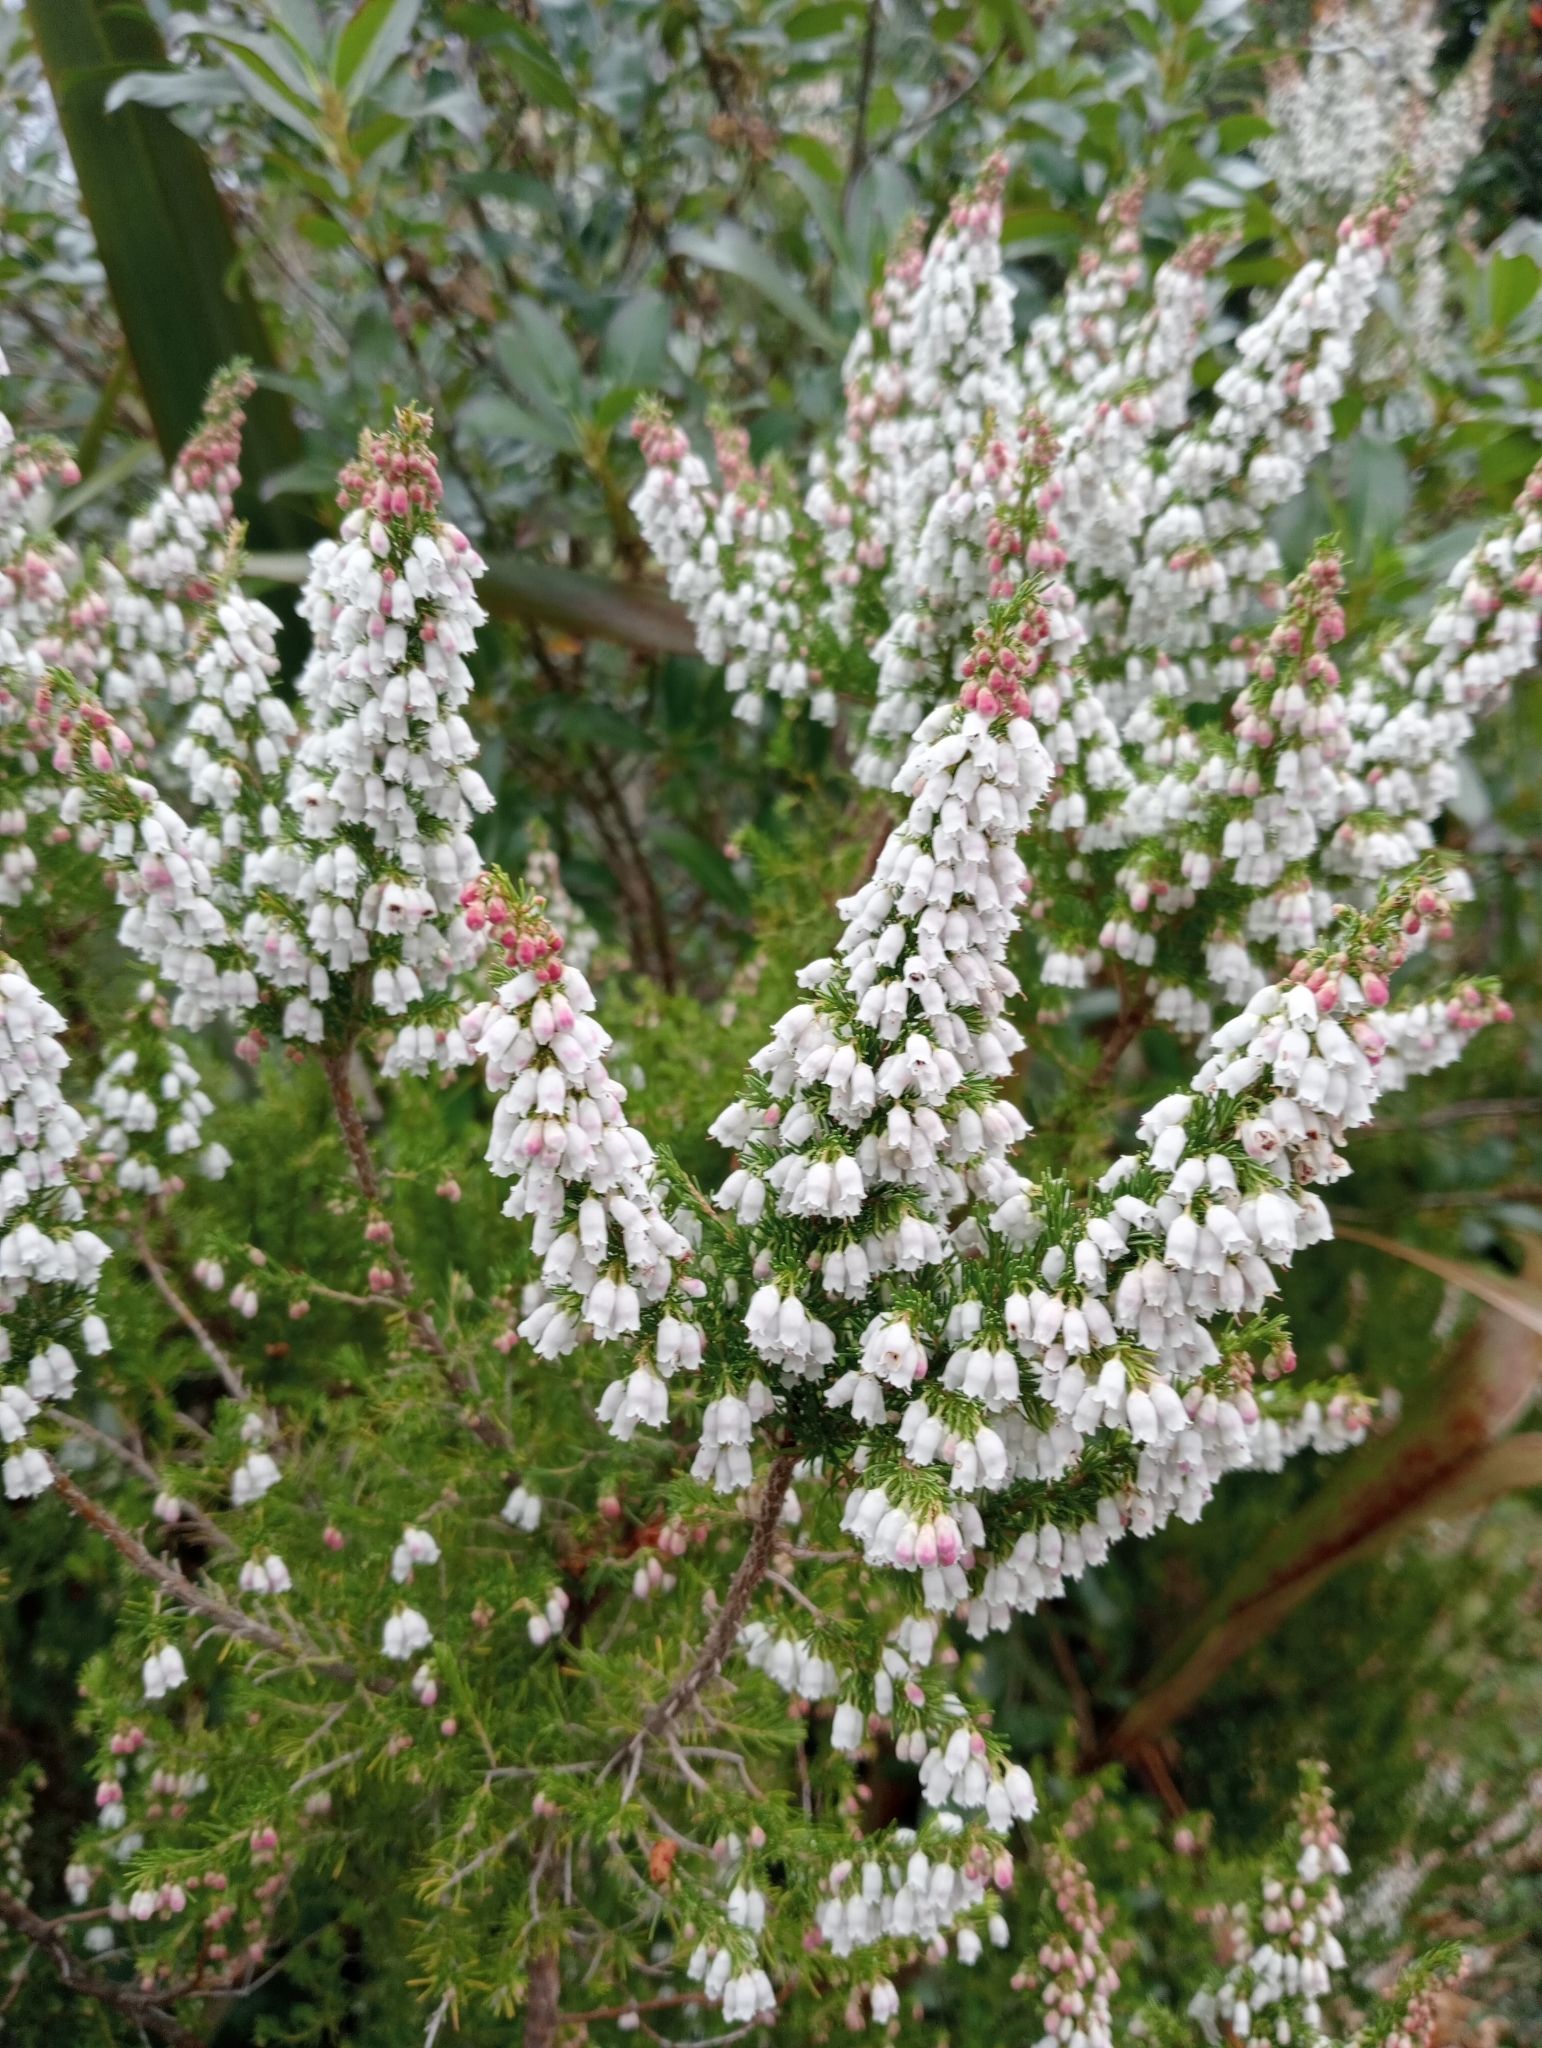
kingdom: Plantae
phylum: Tracheophyta
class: Magnoliopsida
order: Ericales
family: Ericaceae
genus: Erica
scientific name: Erica lusitanica
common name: Spanish heath
